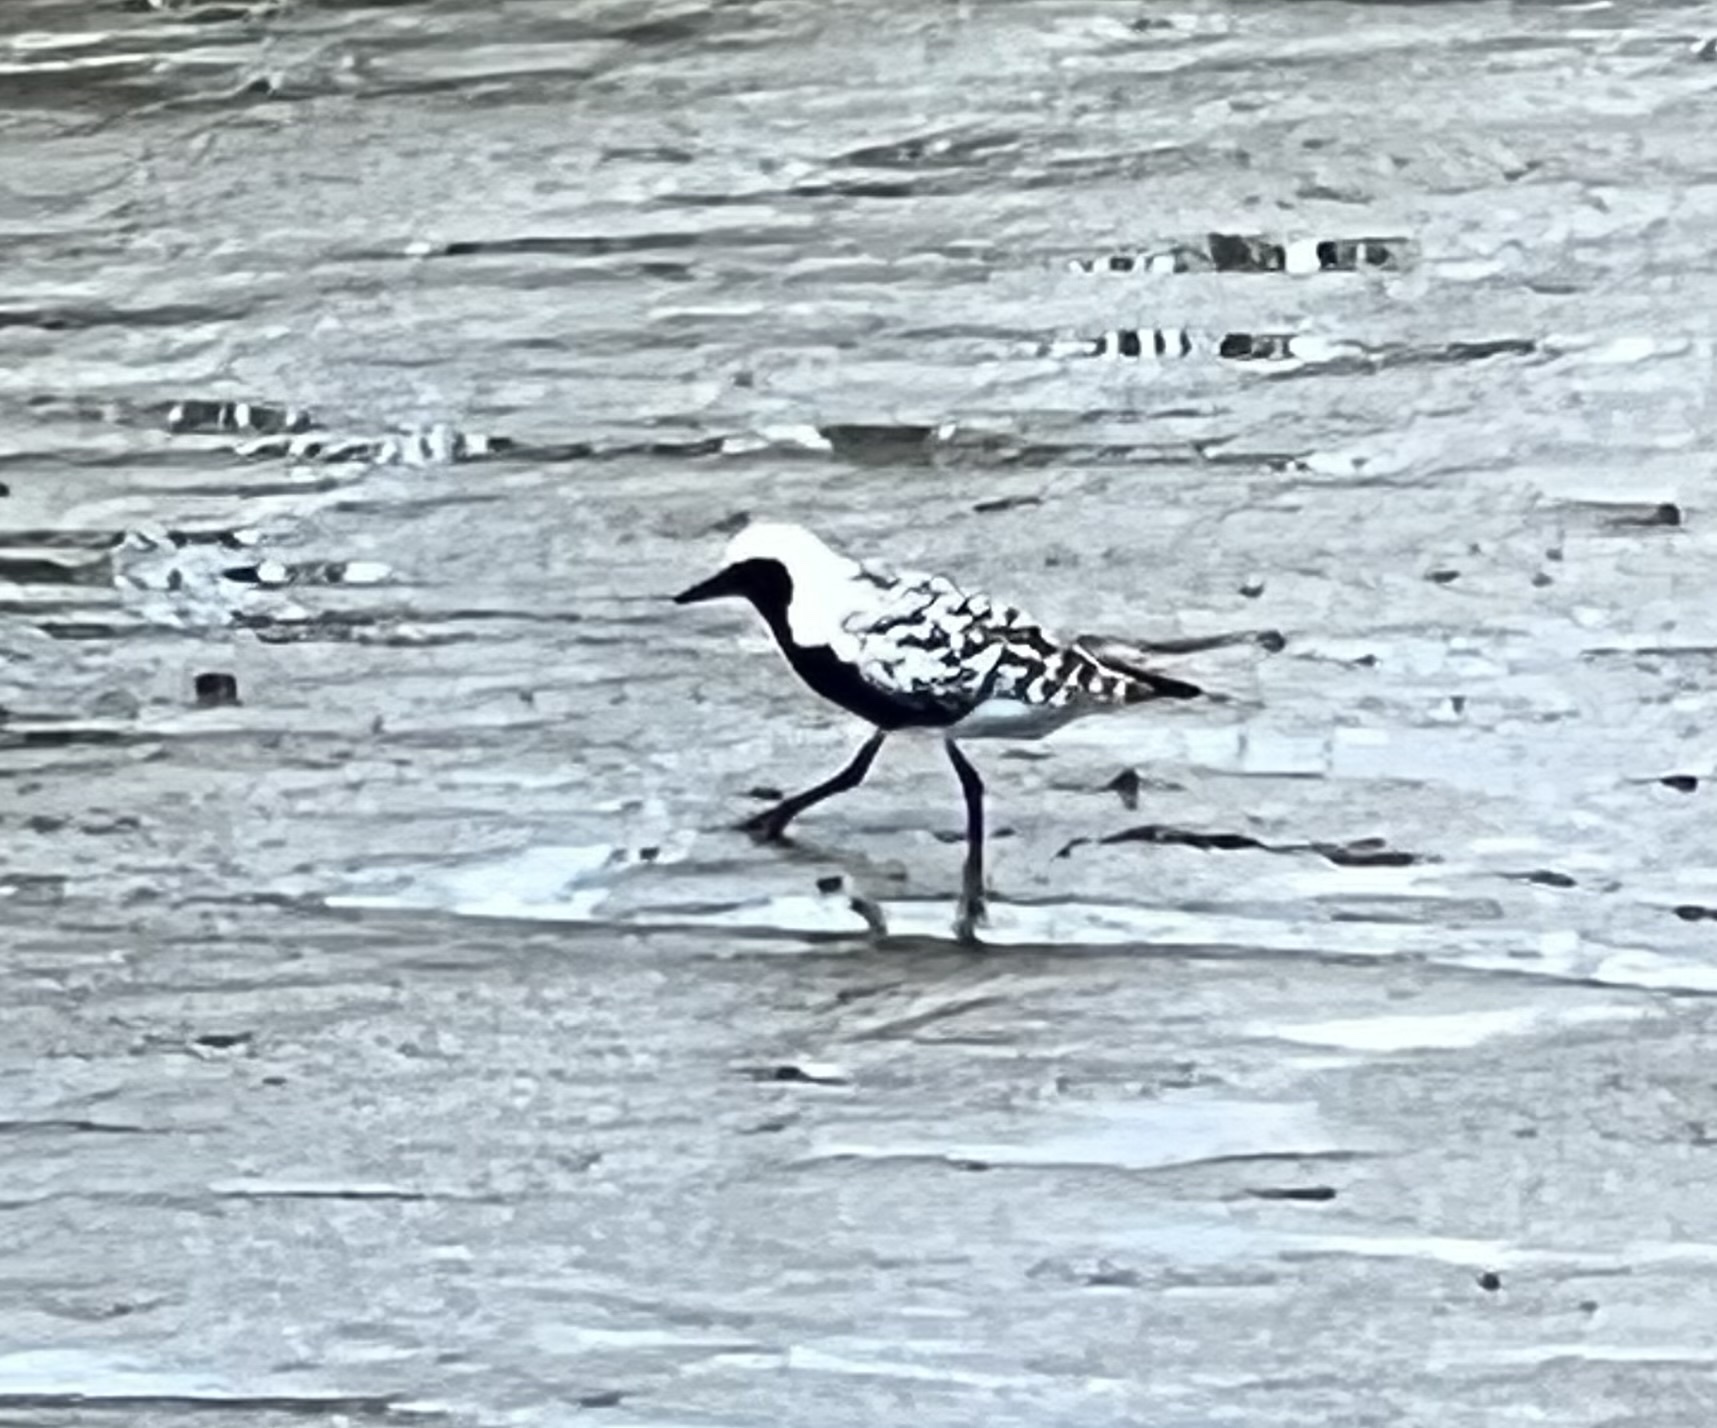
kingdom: Animalia
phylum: Chordata
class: Aves
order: Charadriiformes
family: Charadriidae
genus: Pluvialis
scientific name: Pluvialis squatarola
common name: Grey plover
